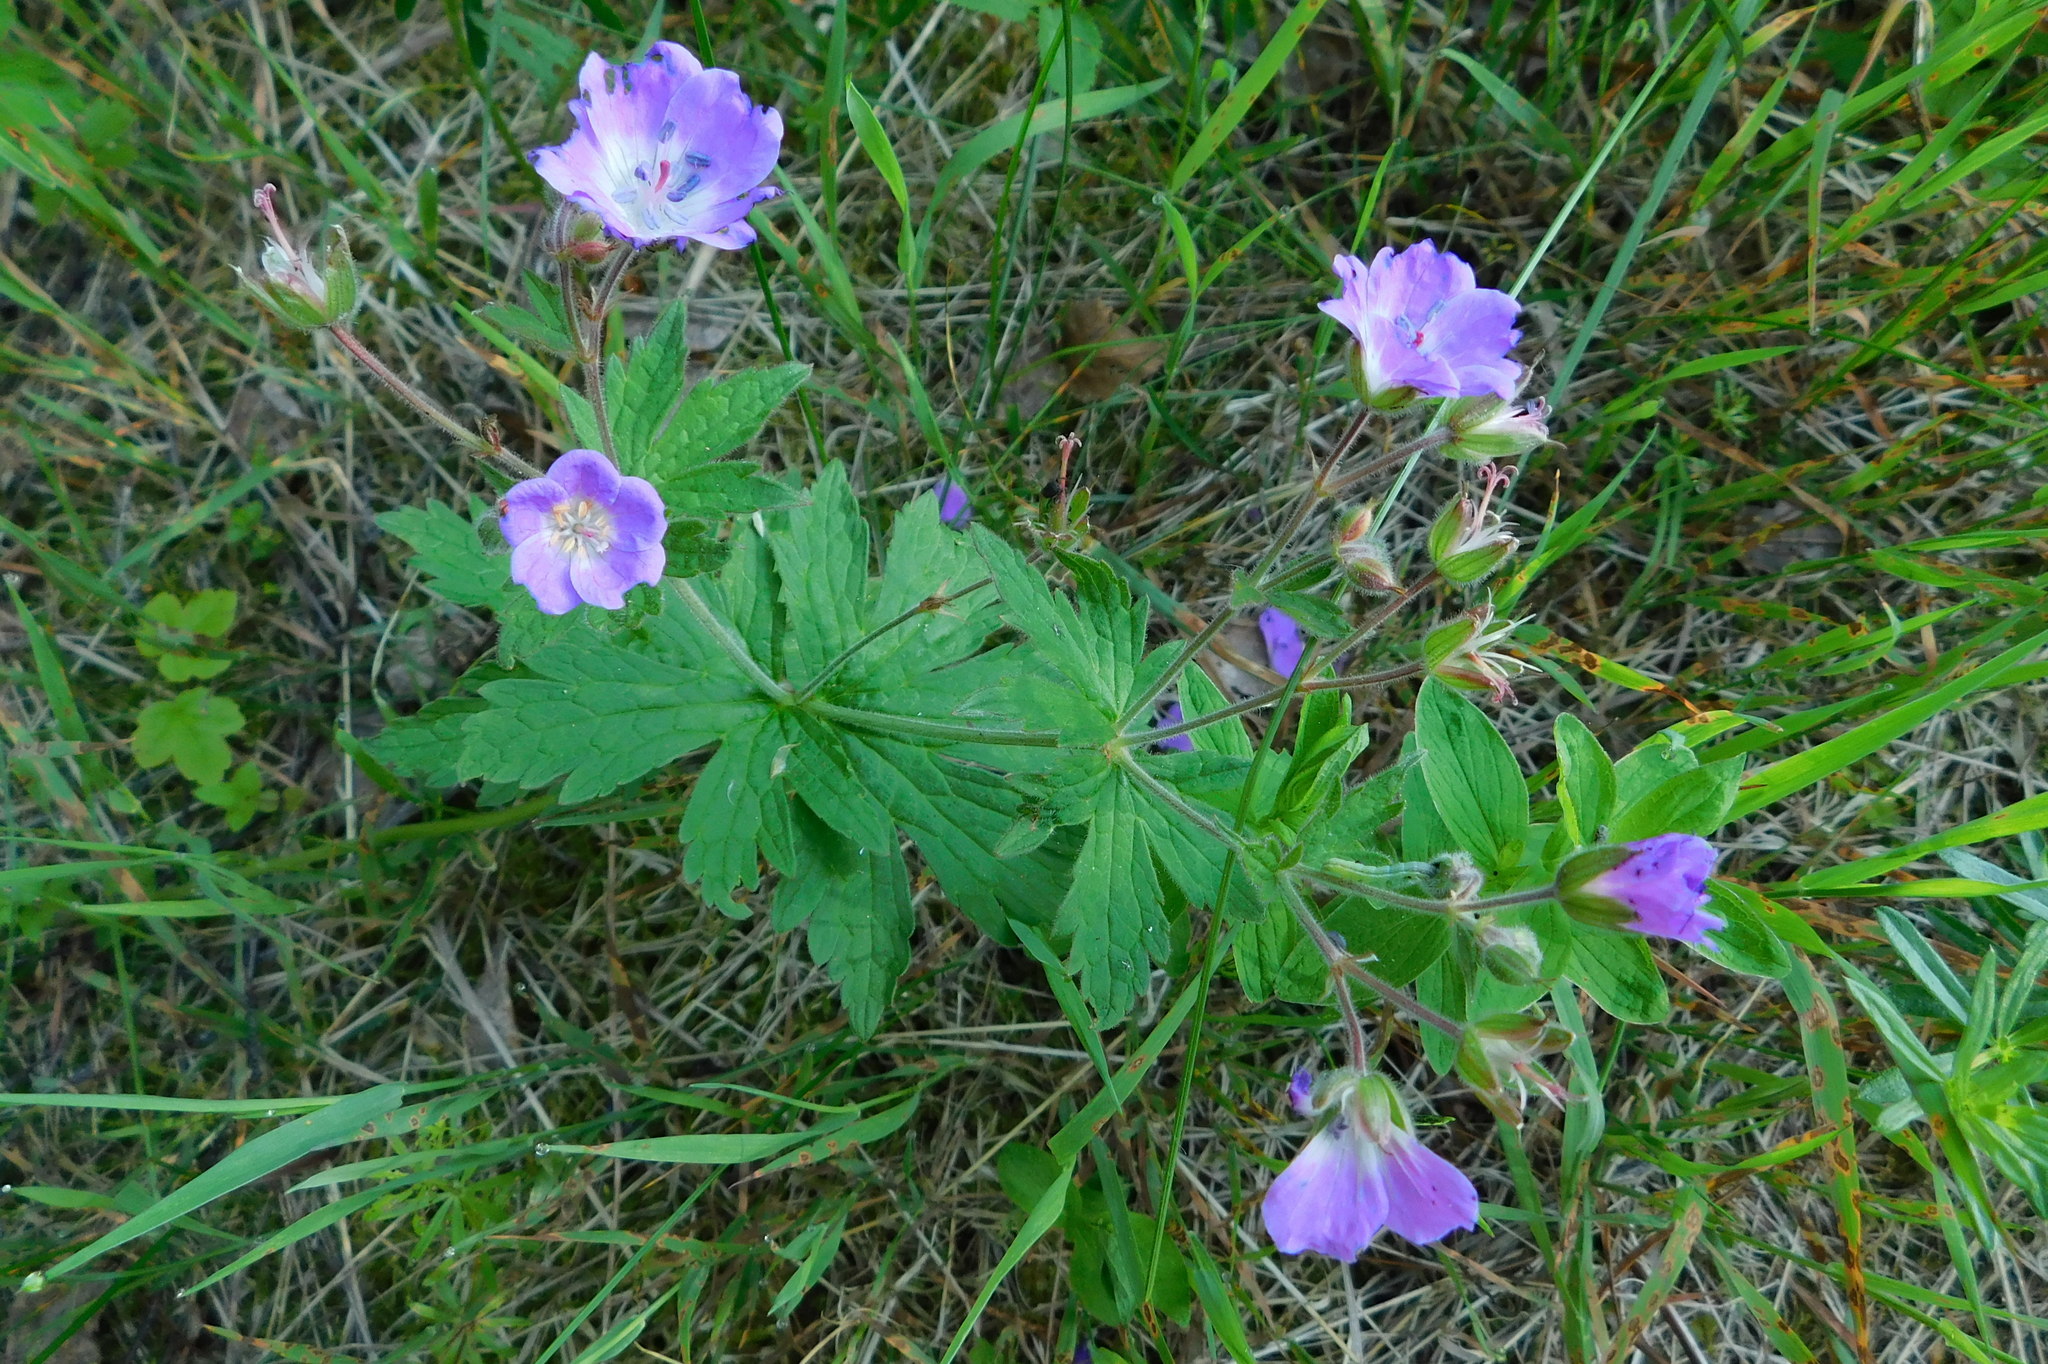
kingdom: Plantae
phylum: Tracheophyta
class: Magnoliopsida
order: Geraniales
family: Geraniaceae
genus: Geranium
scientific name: Geranium sylvaticum
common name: Wood crane's-bill
